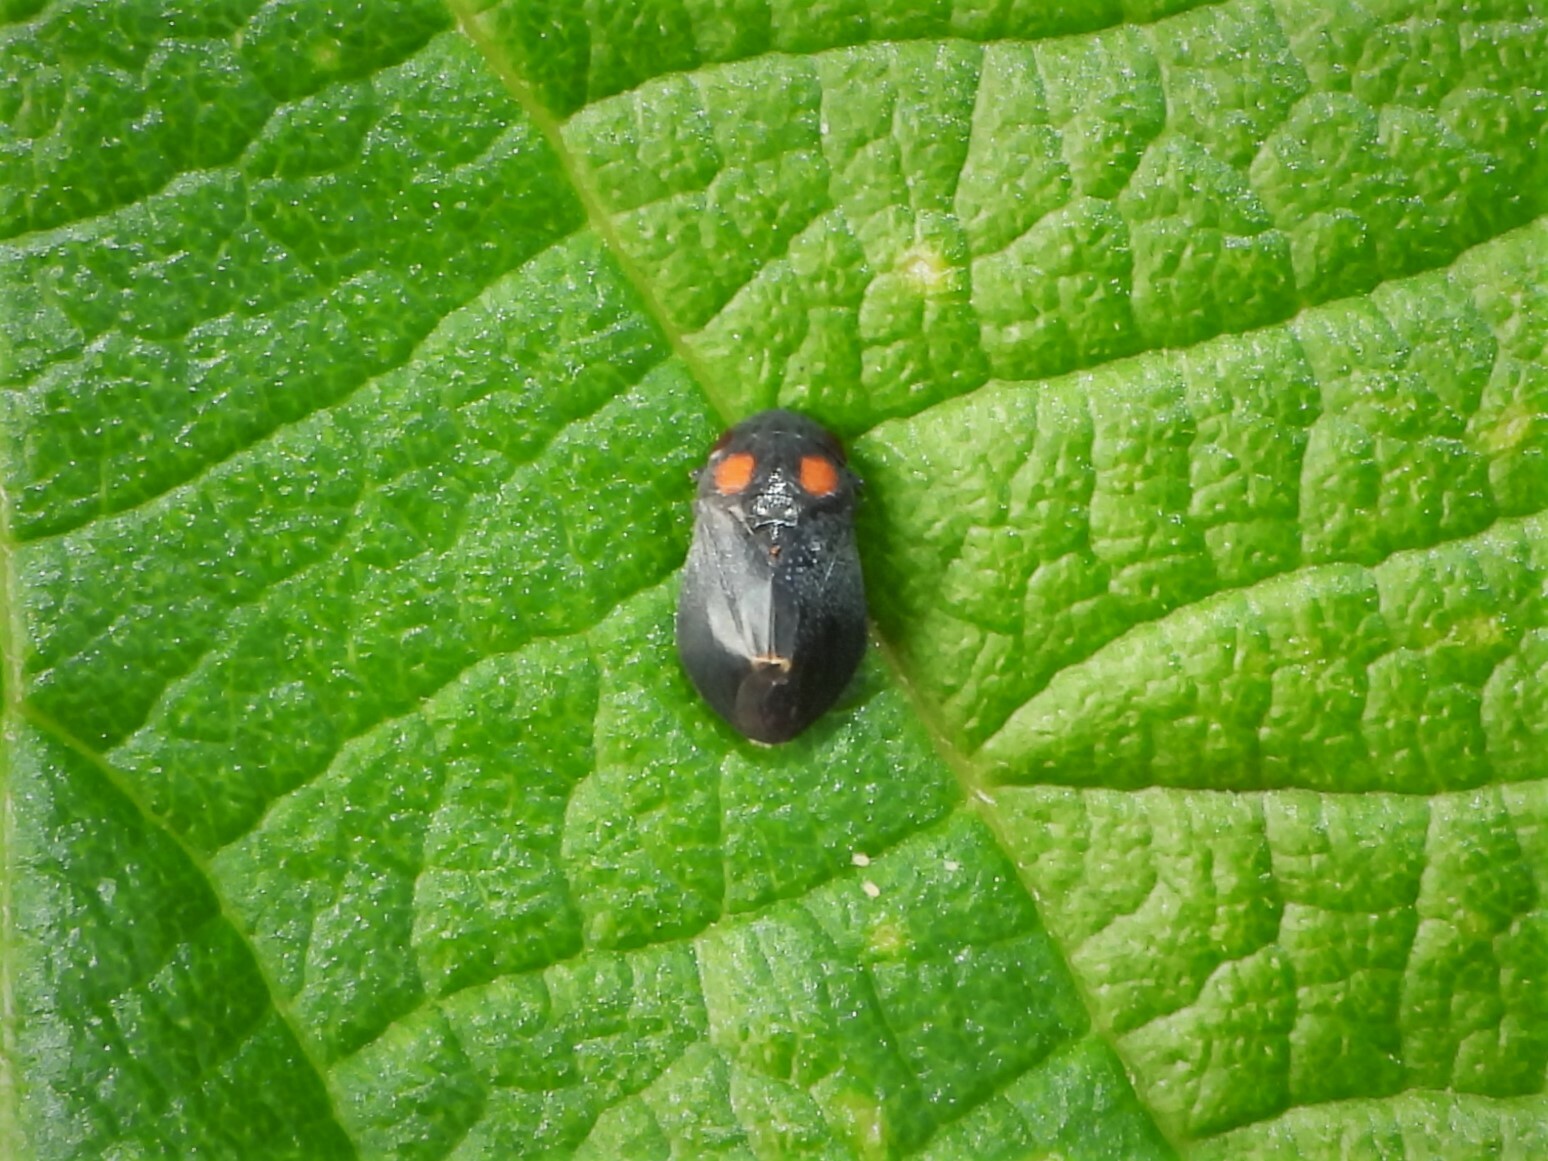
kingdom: Animalia
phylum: Arthropoda
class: Insecta
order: Hemiptera
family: Cicadellidae
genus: Penthimia
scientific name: Penthimia nigra
